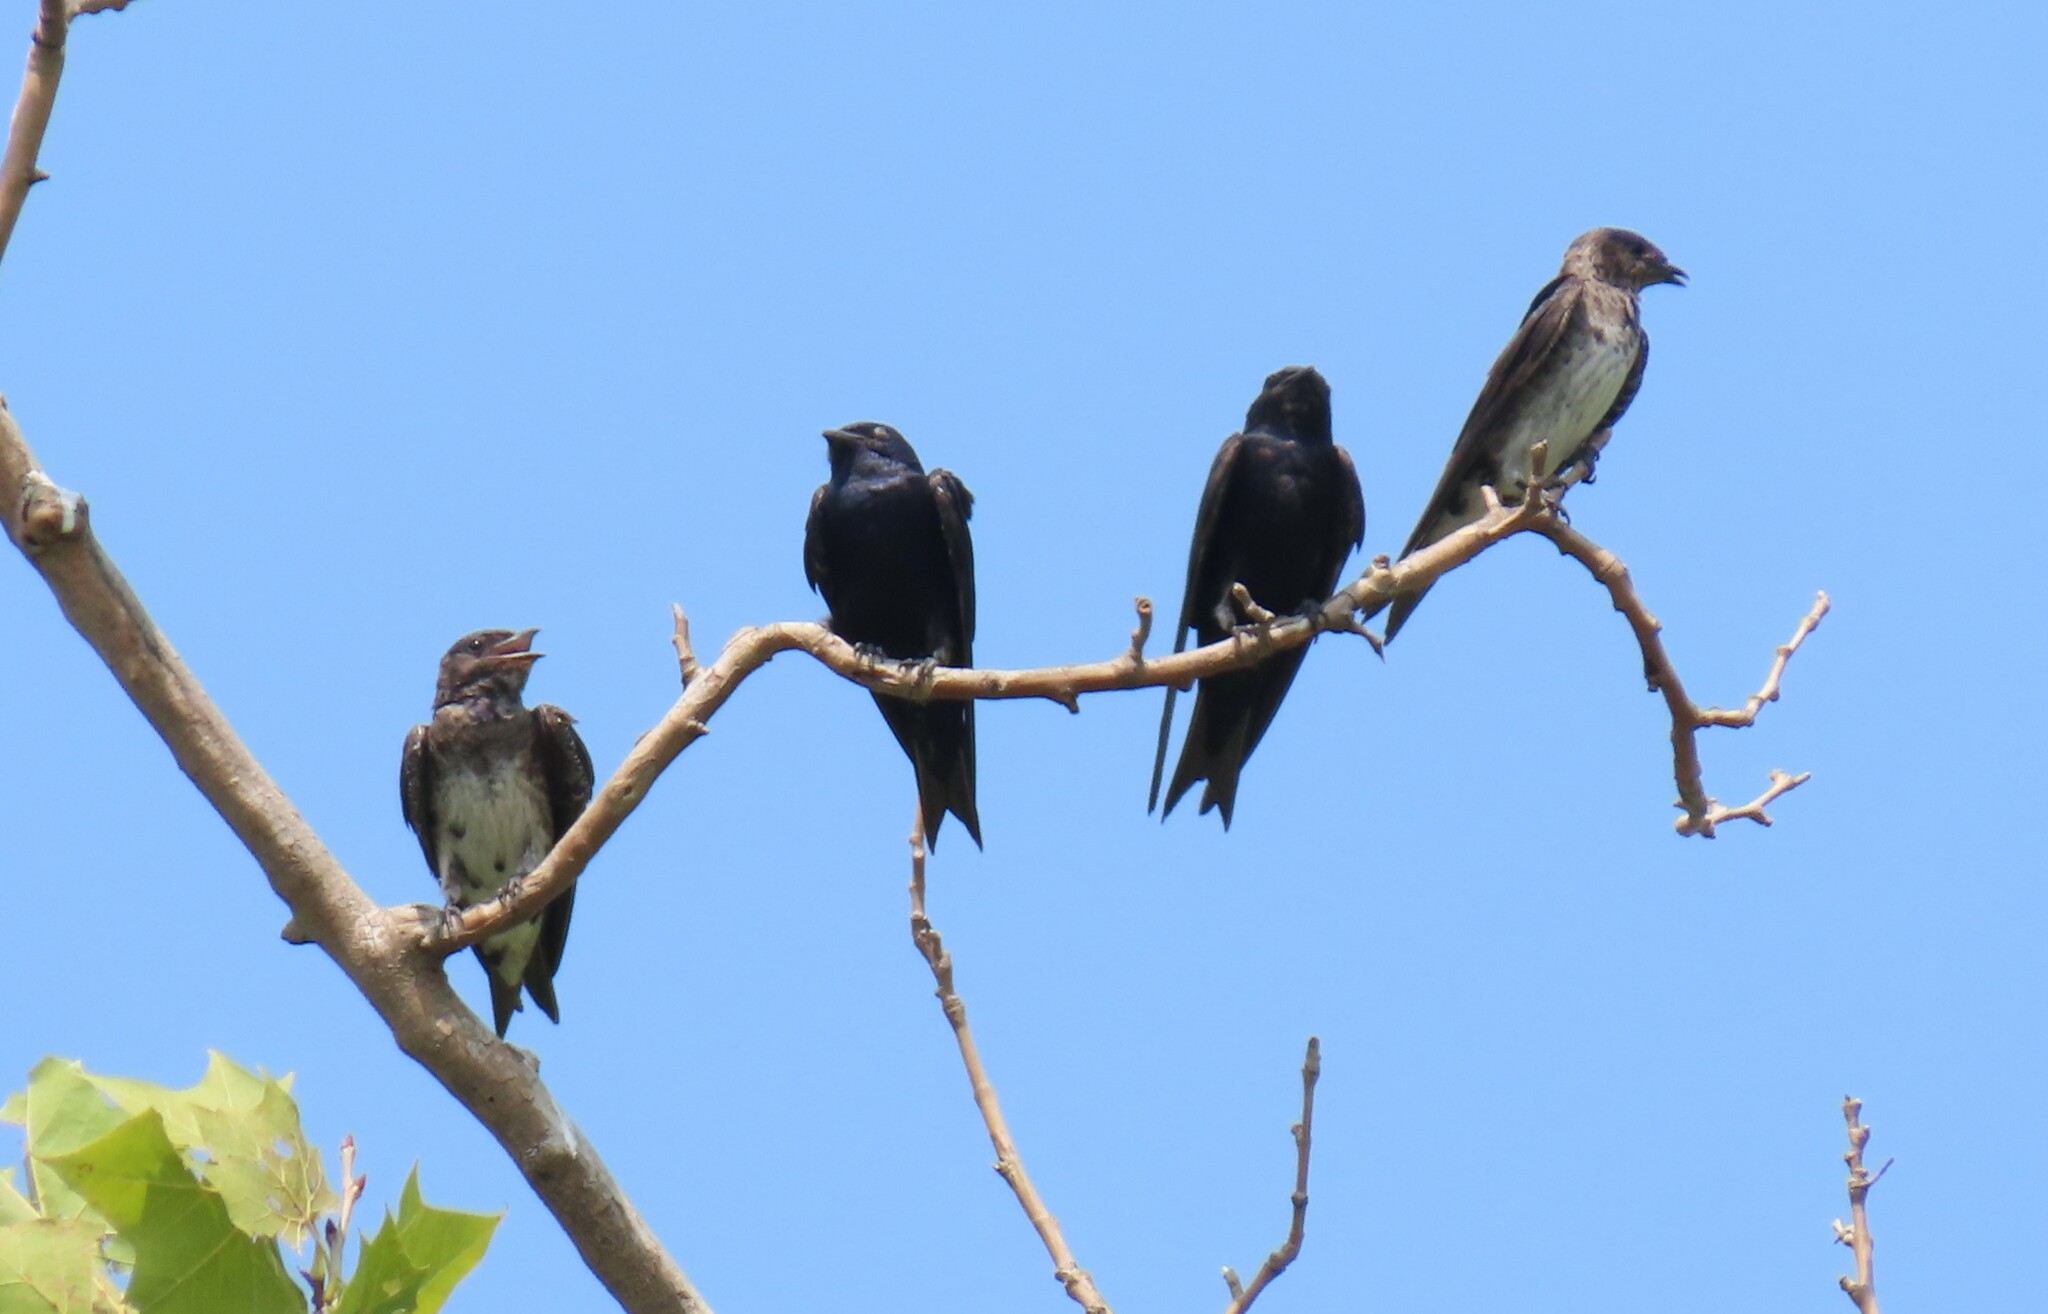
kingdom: Animalia
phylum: Chordata
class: Aves
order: Passeriformes
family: Hirundinidae
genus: Progne
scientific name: Progne subis
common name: Purple martin
